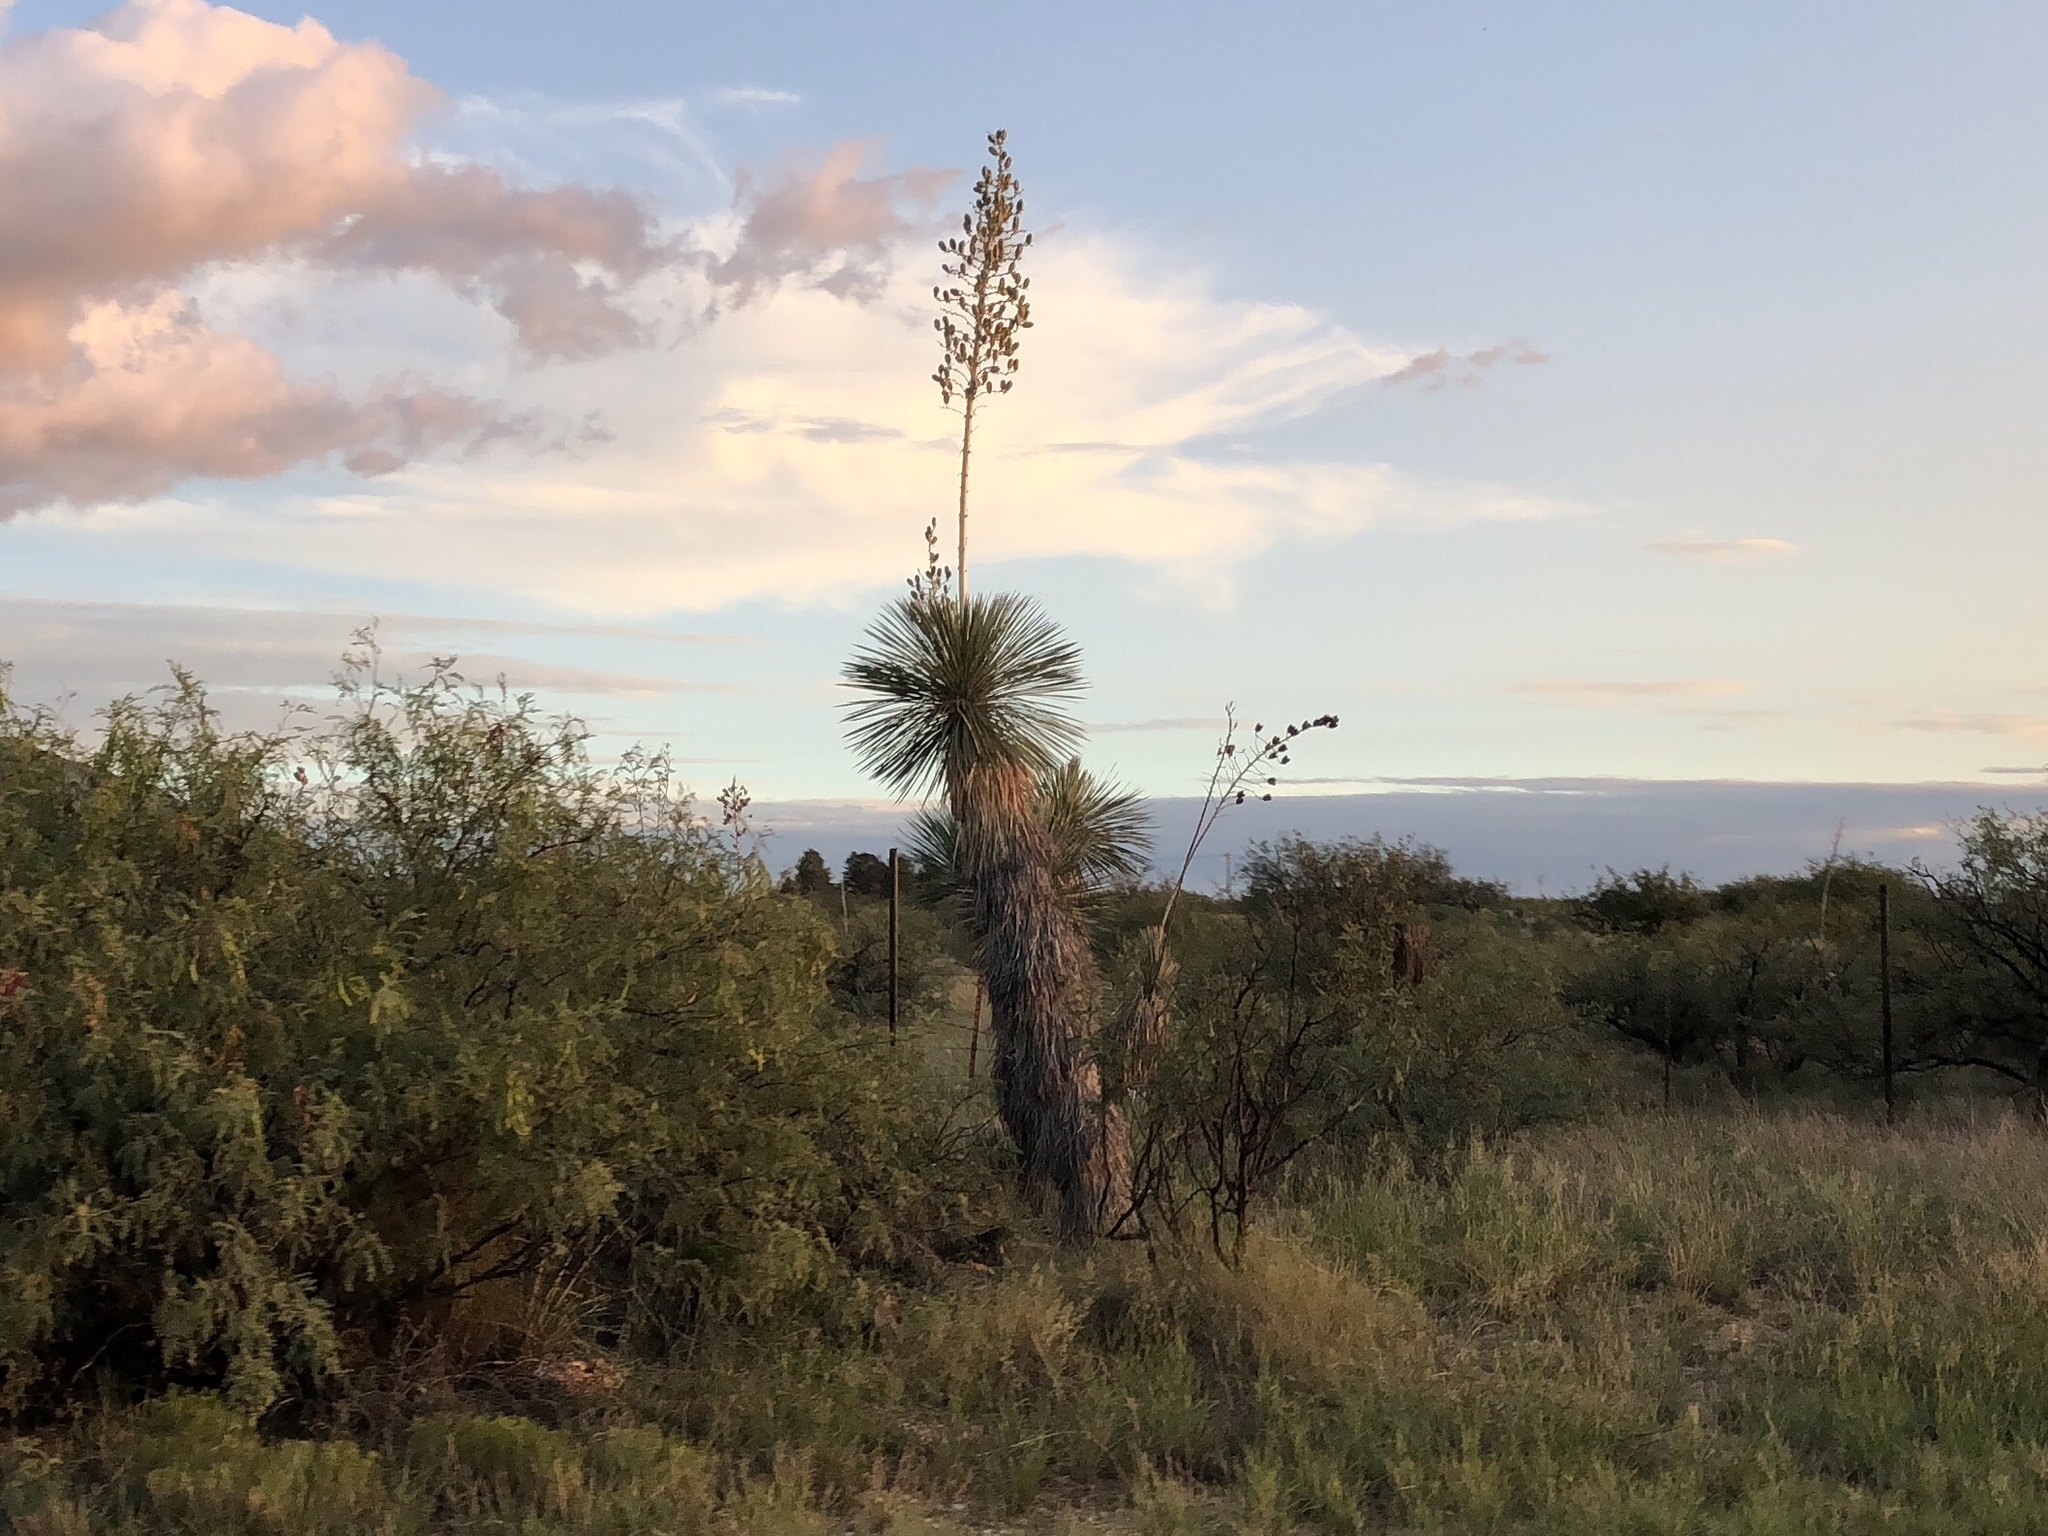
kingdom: Plantae
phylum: Tracheophyta
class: Liliopsida
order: Asparagales
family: Asparagaceae
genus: Yucca
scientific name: Yucca elata
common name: Palmella
